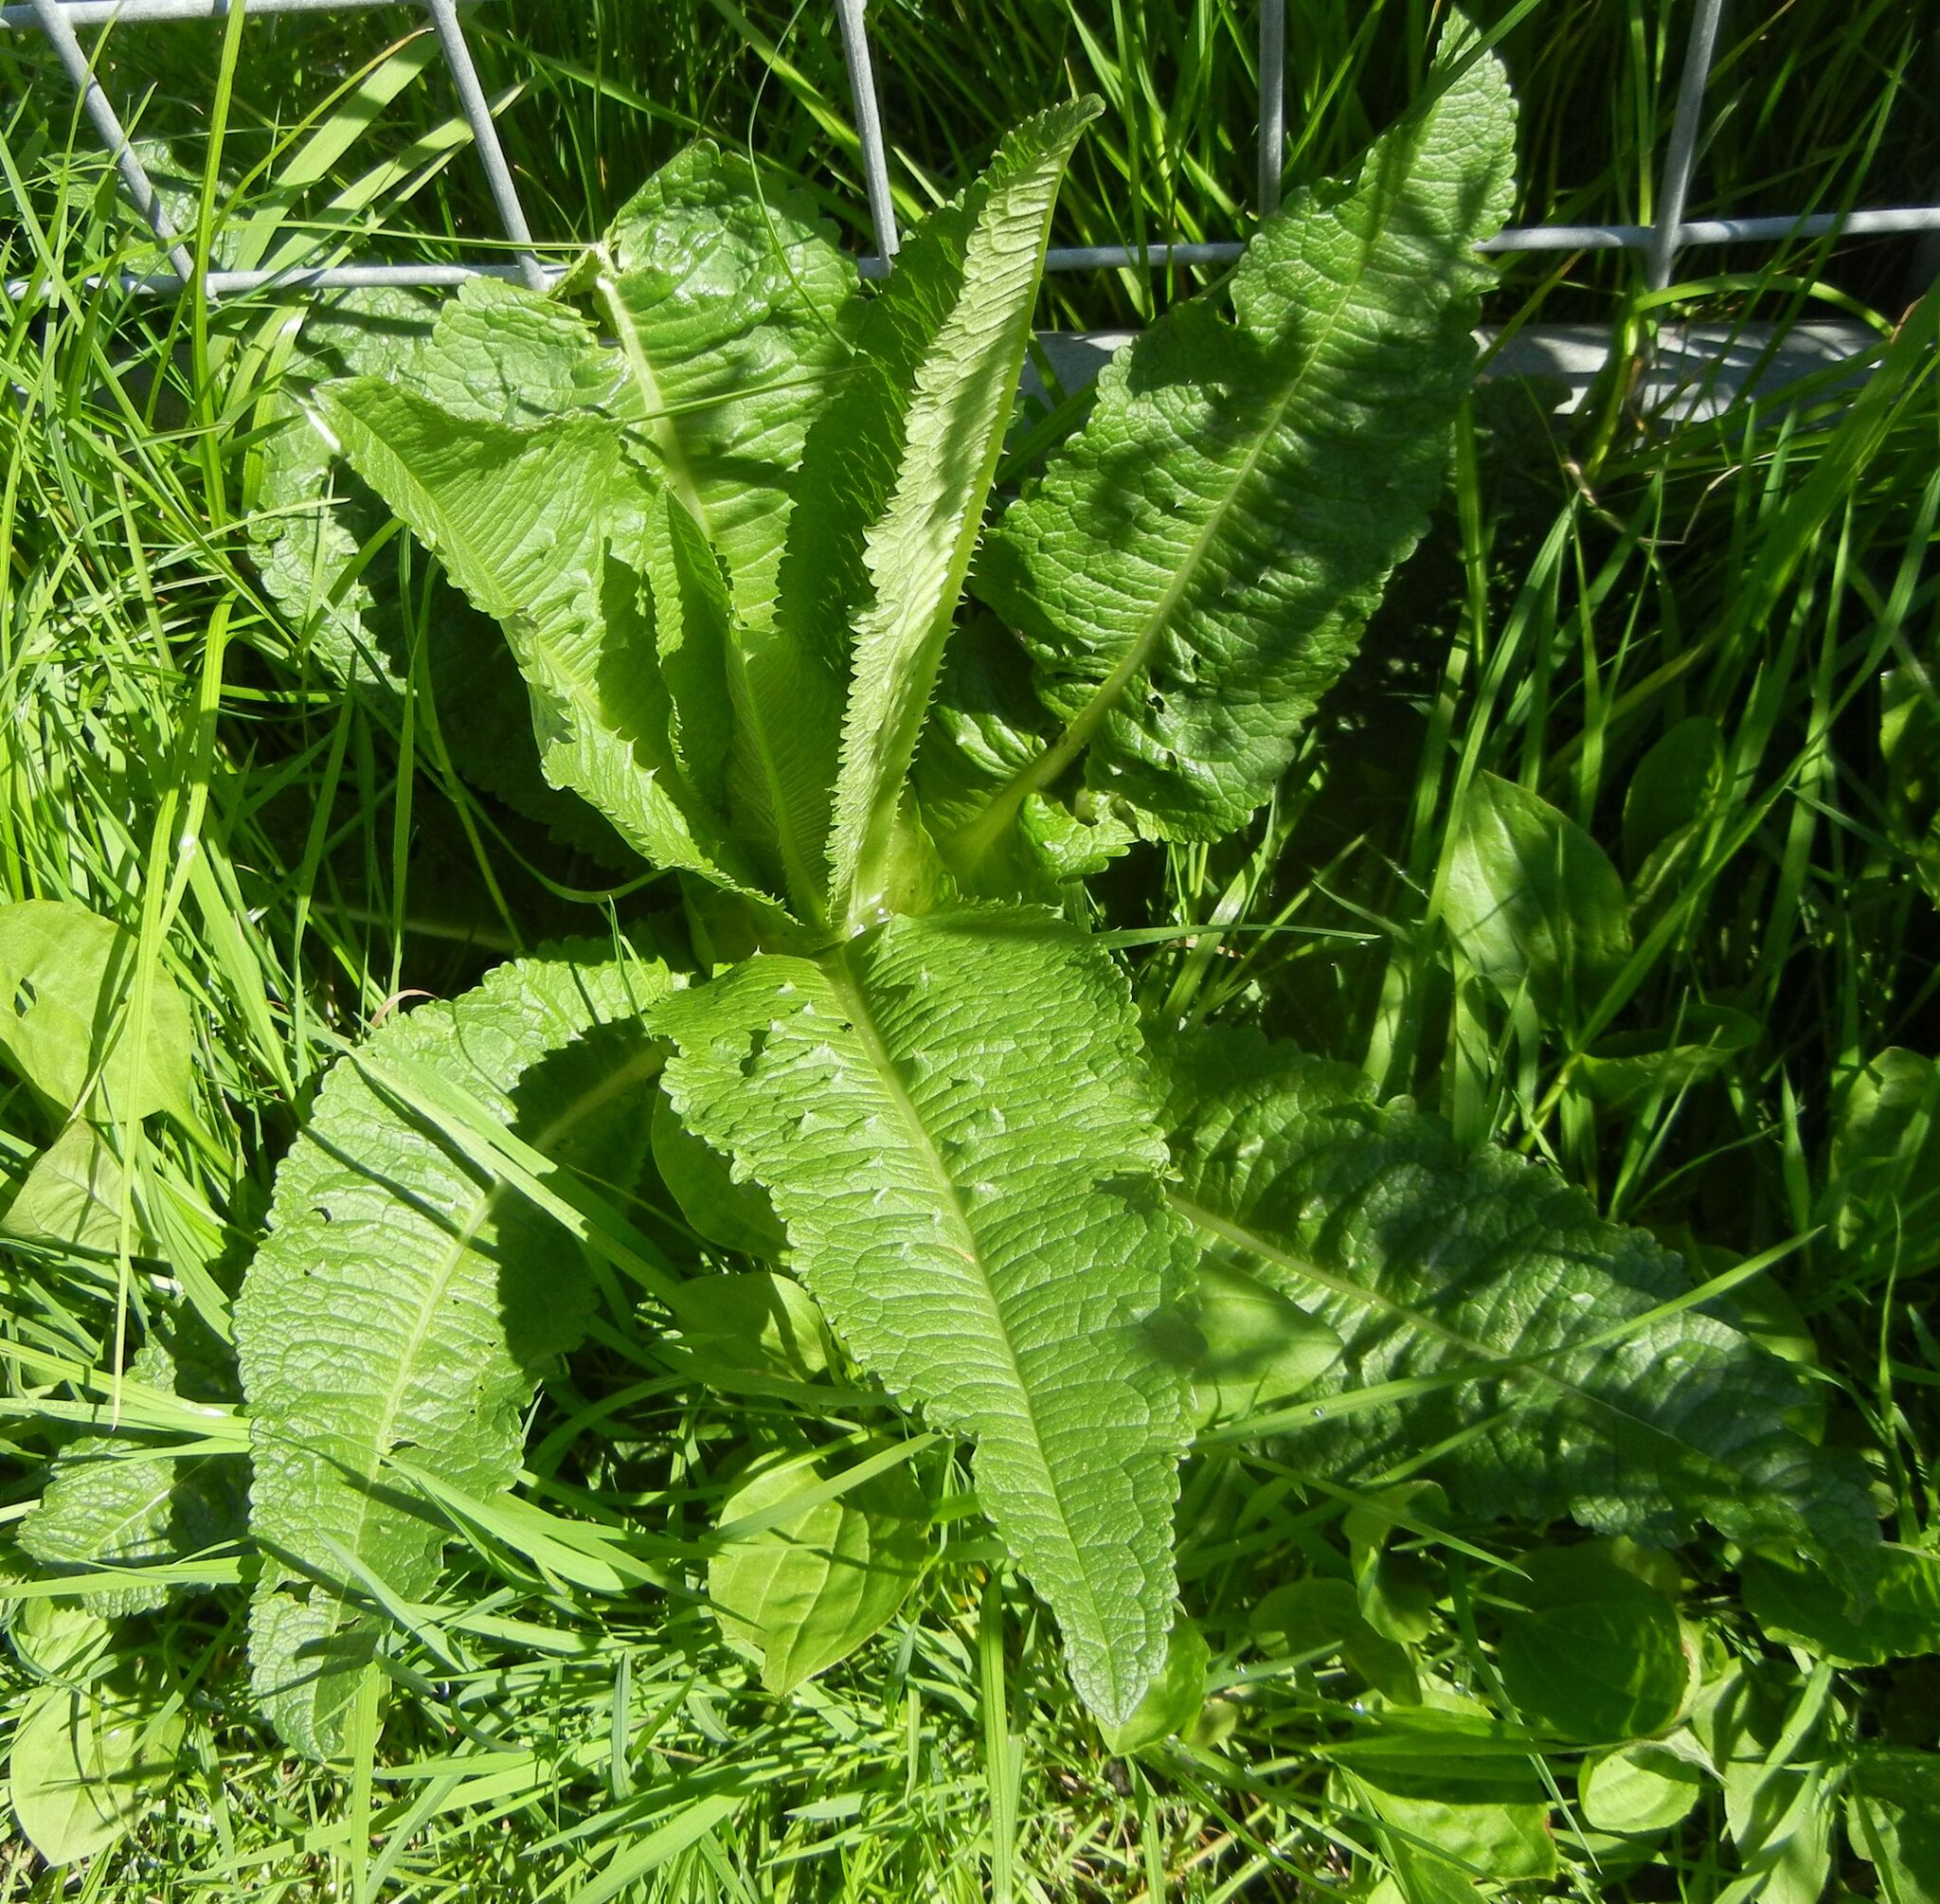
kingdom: Plantae
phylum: Tracheophyta
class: Magnoliopsida
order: Dipsacales
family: Caprifoliaceae
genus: Dipsacus
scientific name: Dipsacus fullonum
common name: Teasel
